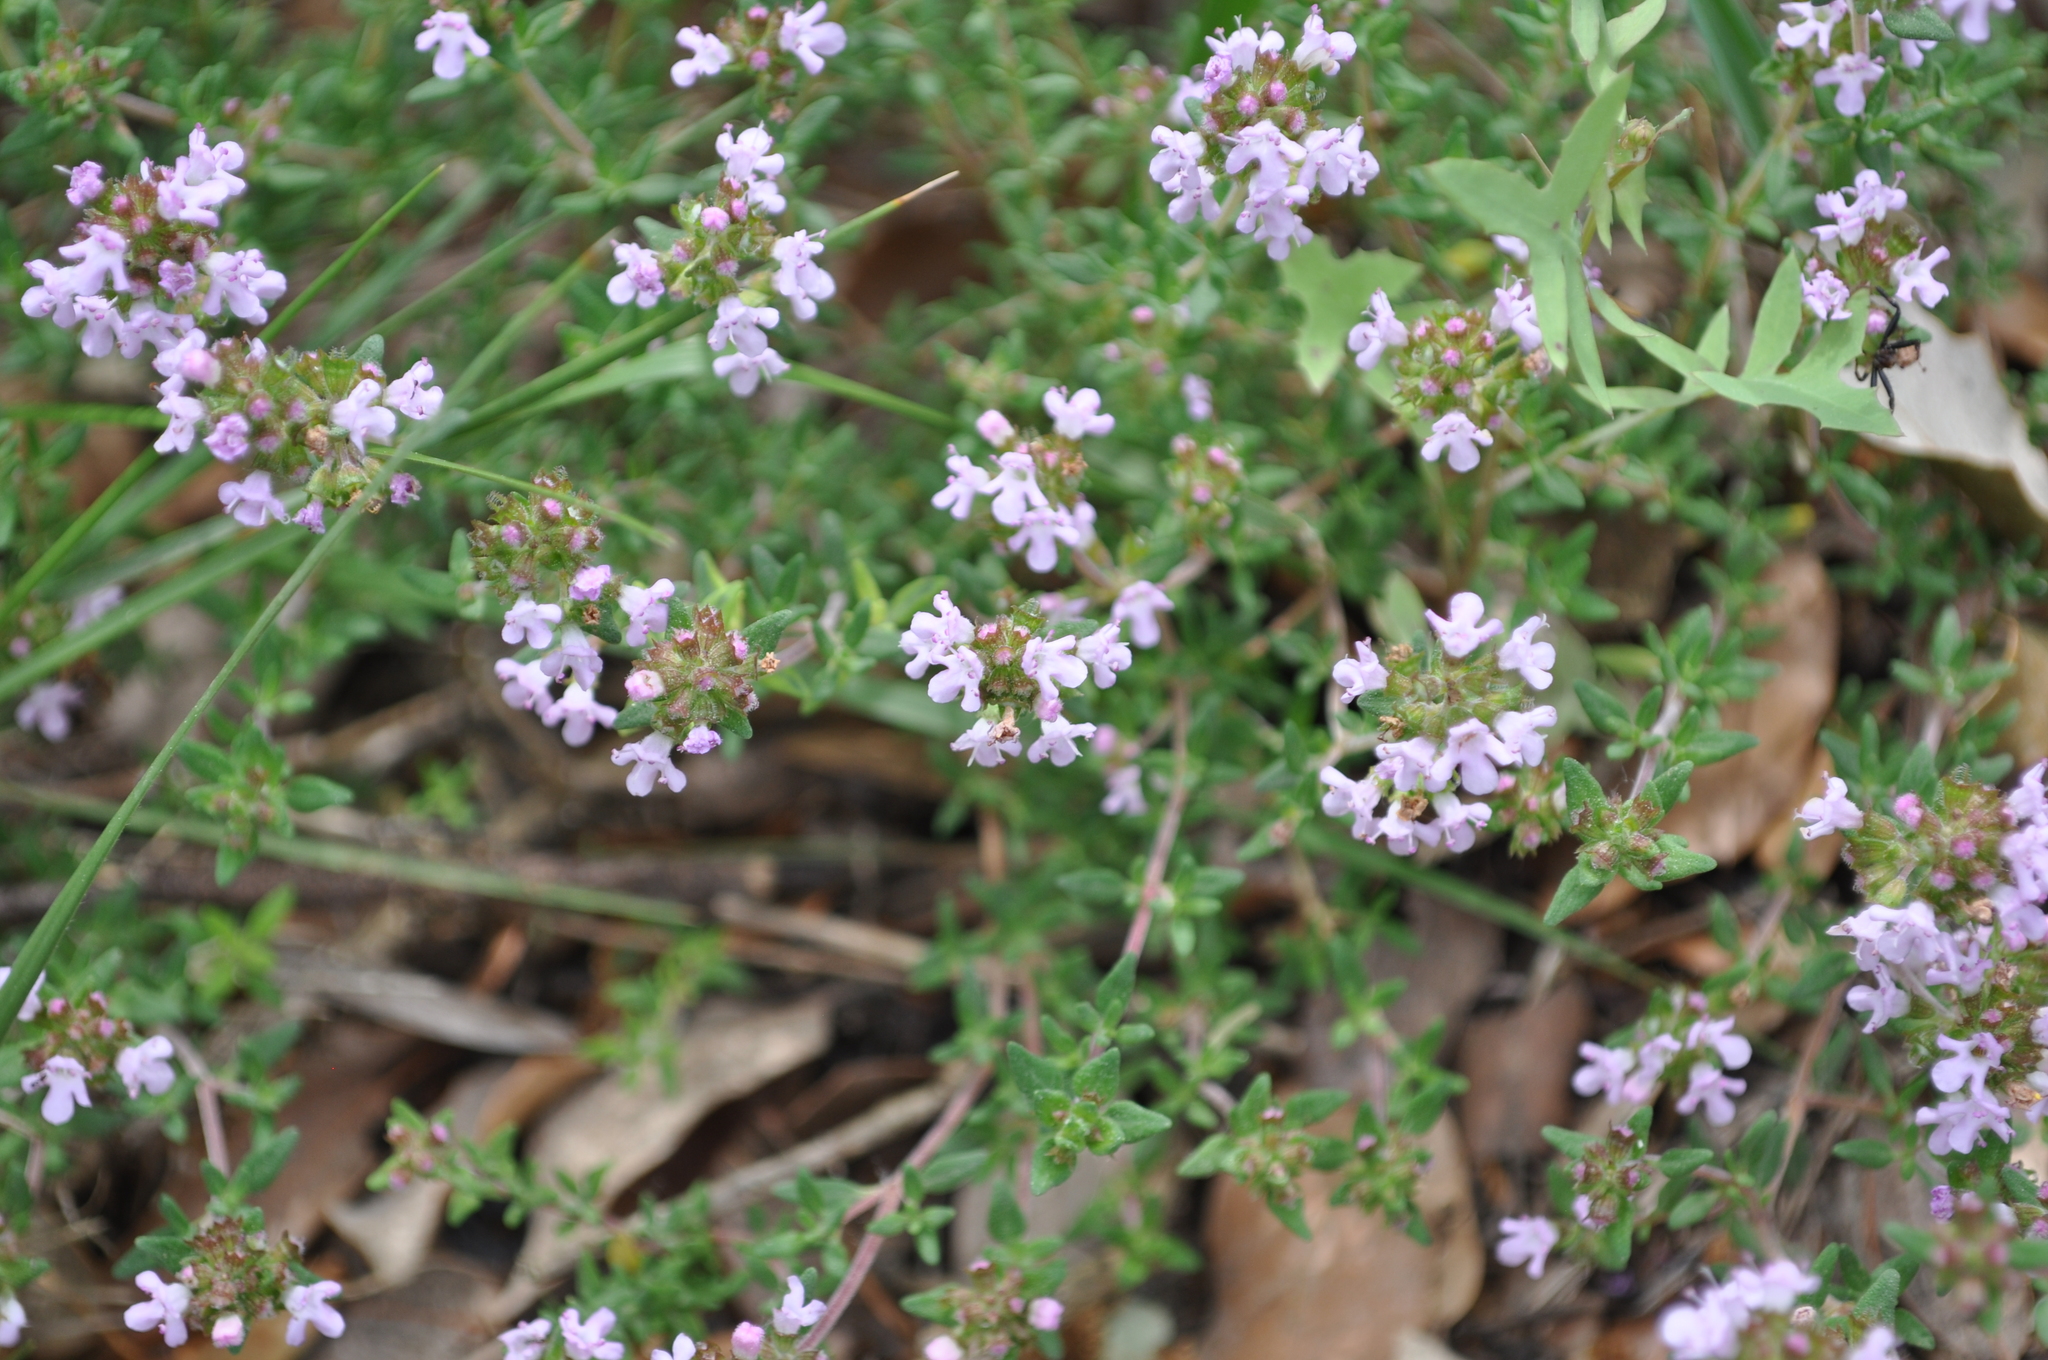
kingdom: Plantae
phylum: Tracheophyta
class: Magnoliopsida
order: Lamiales
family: Lamiaceae
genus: Thymus
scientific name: Thymus vulgaris
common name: Garden thyme
